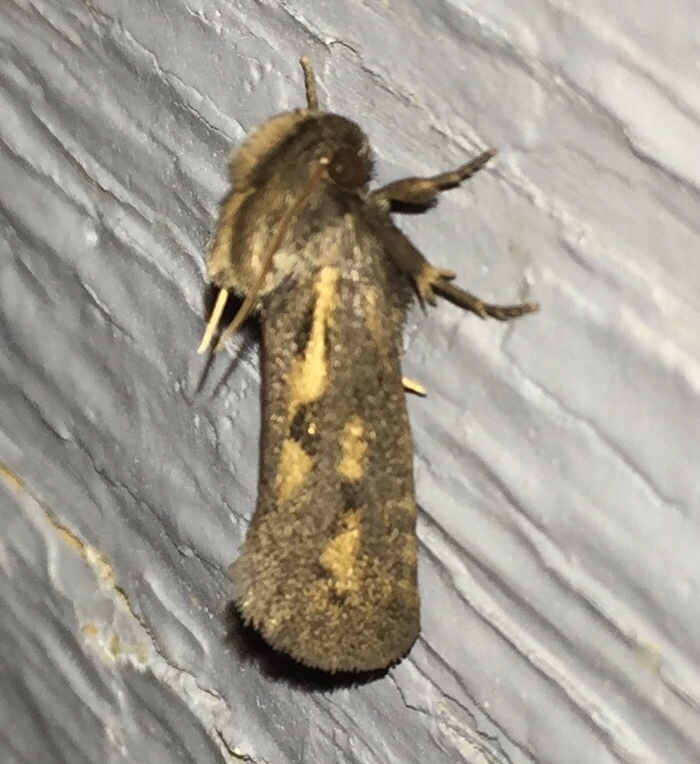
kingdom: Animalia
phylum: Arthropoda
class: Insecta
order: Lepidoptera
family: Tineidae
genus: Acrolophus
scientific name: Acrolophus popeanella
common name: Clemens' grass tubeworm moth
